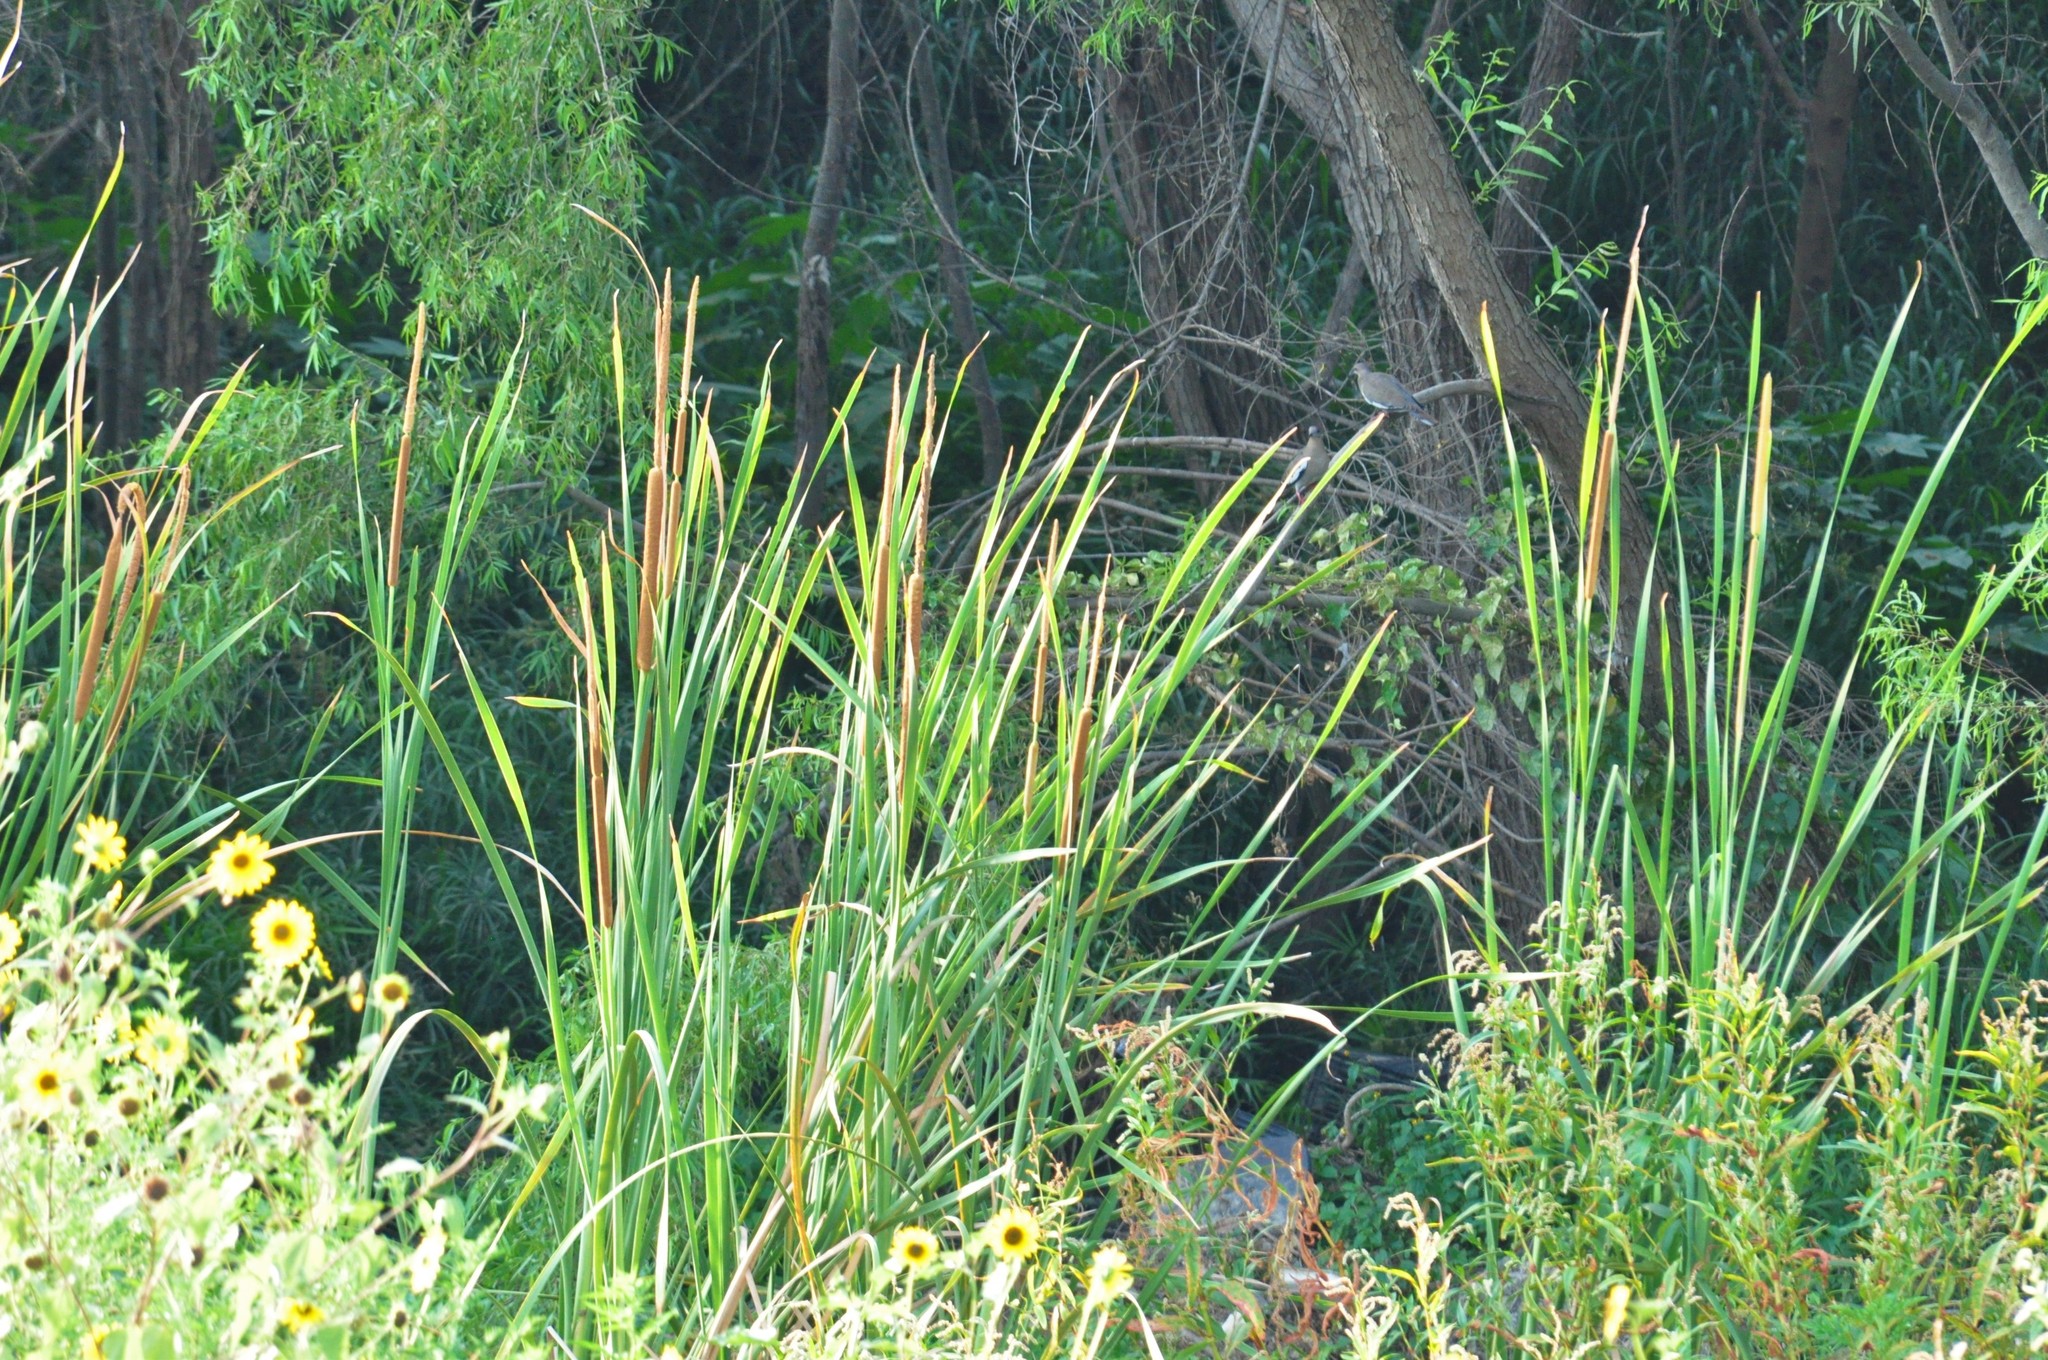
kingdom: Plantae
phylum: Tracheophyta
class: Liliopsida
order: Poales
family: Typhaceae
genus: Typha
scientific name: Typha domingensis
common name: Southern cattail
